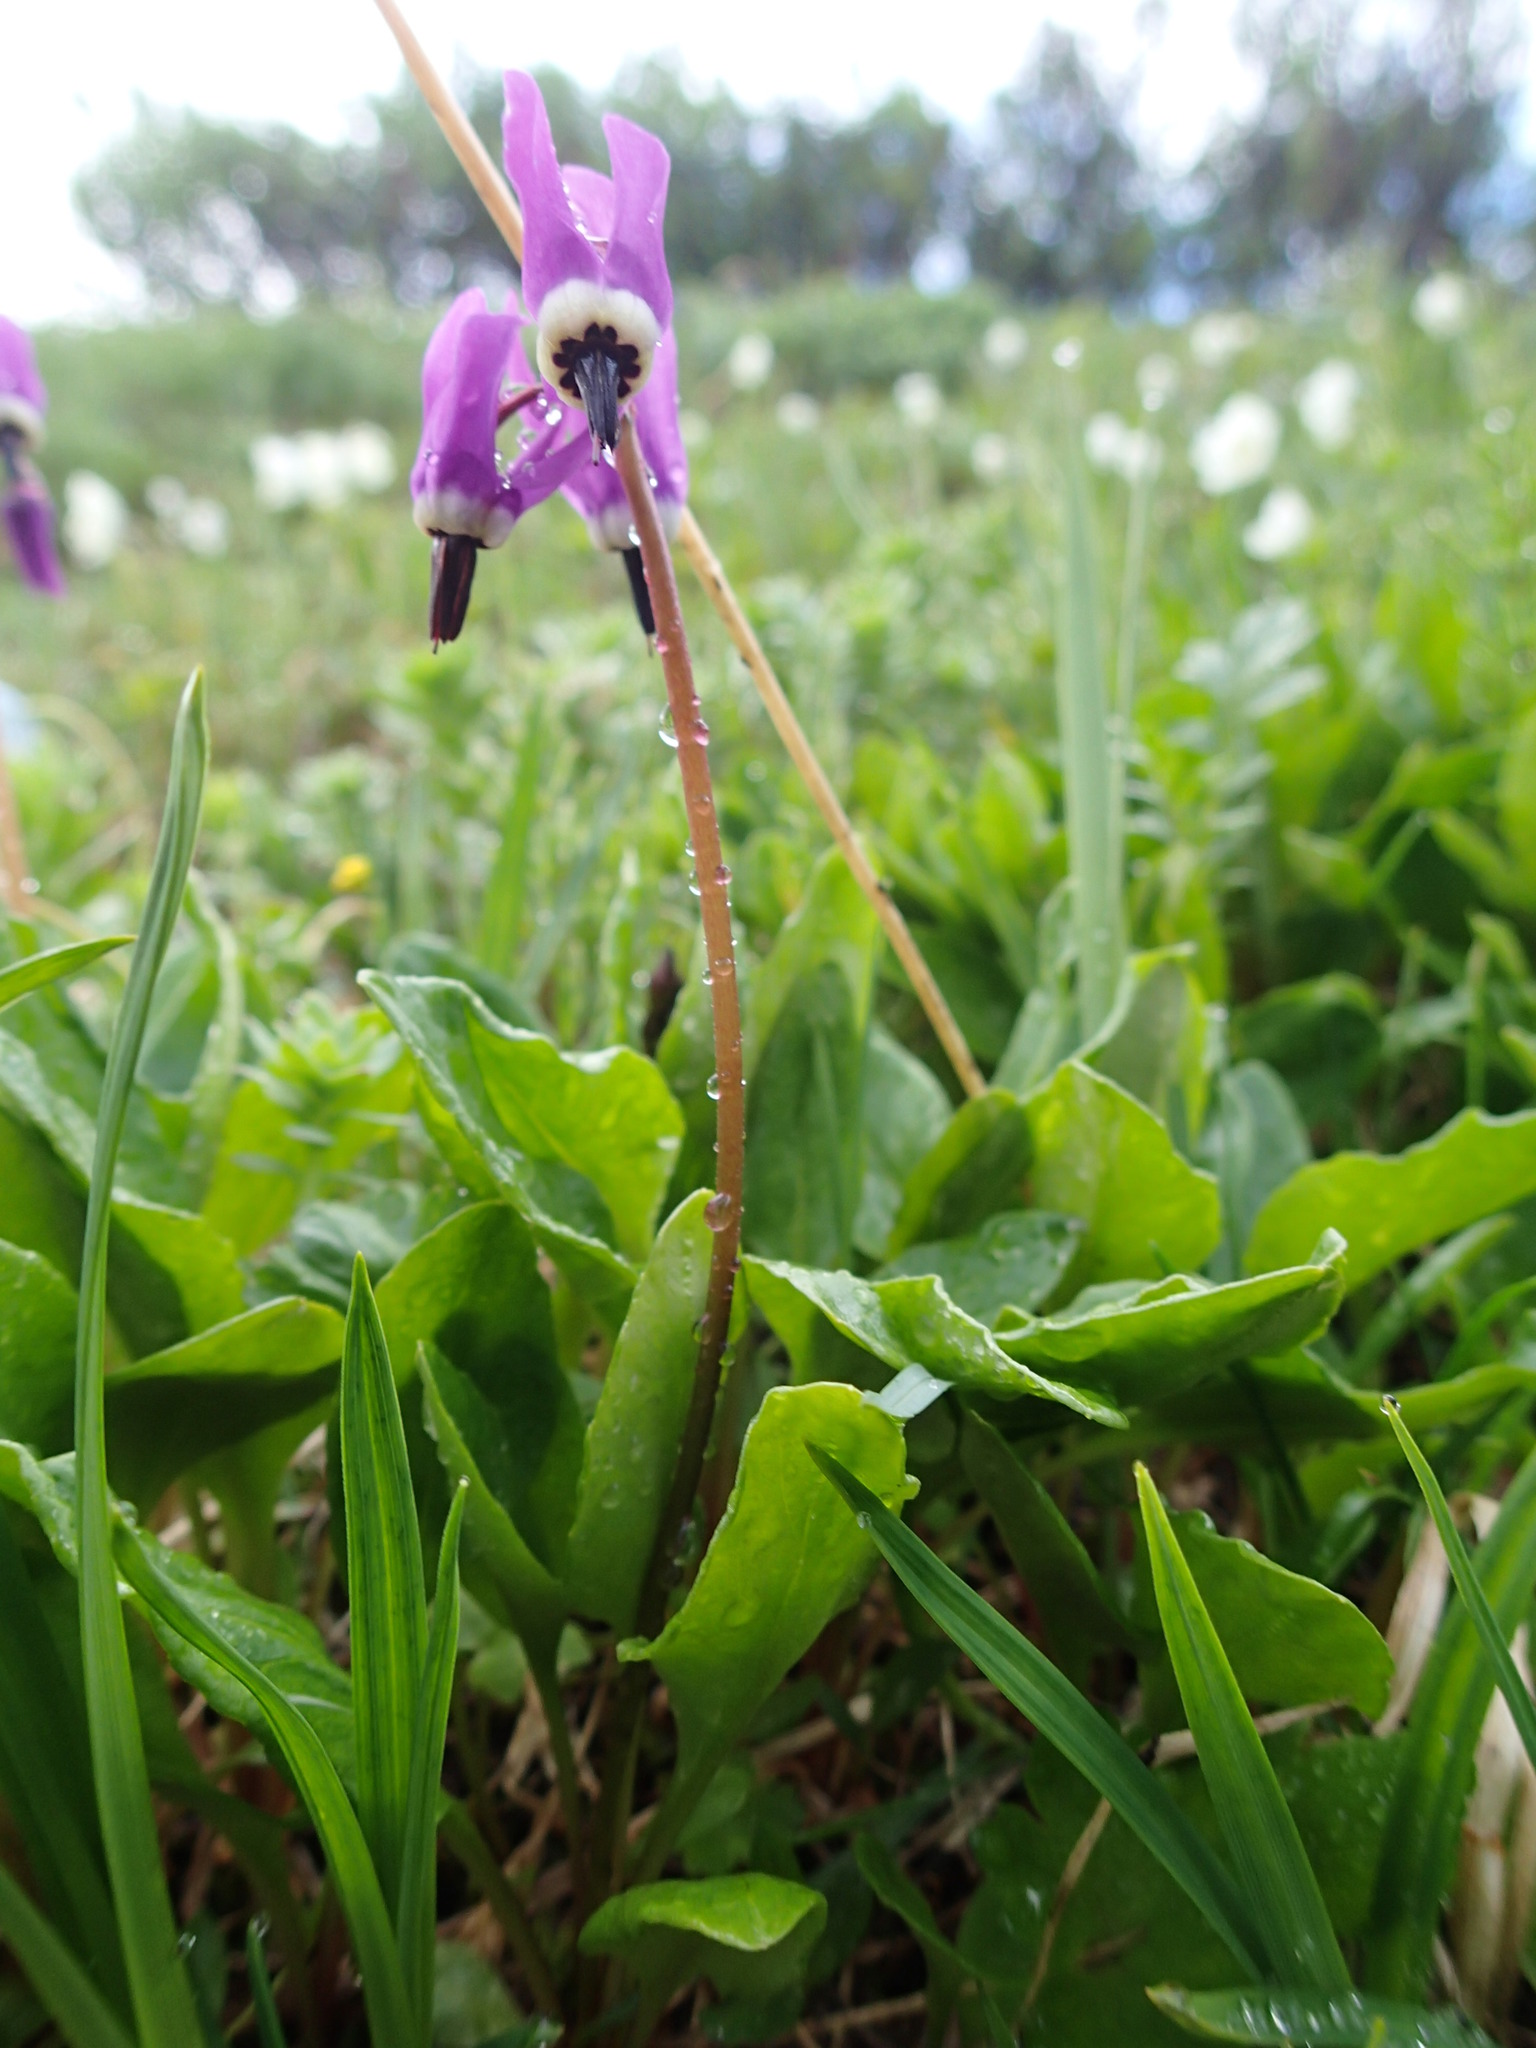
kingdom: Plantae
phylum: Tracheophyta
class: Magnoliopsida
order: Ericales
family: Primulaceae
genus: Dodecatheon
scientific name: Dodecatheon frigidum
